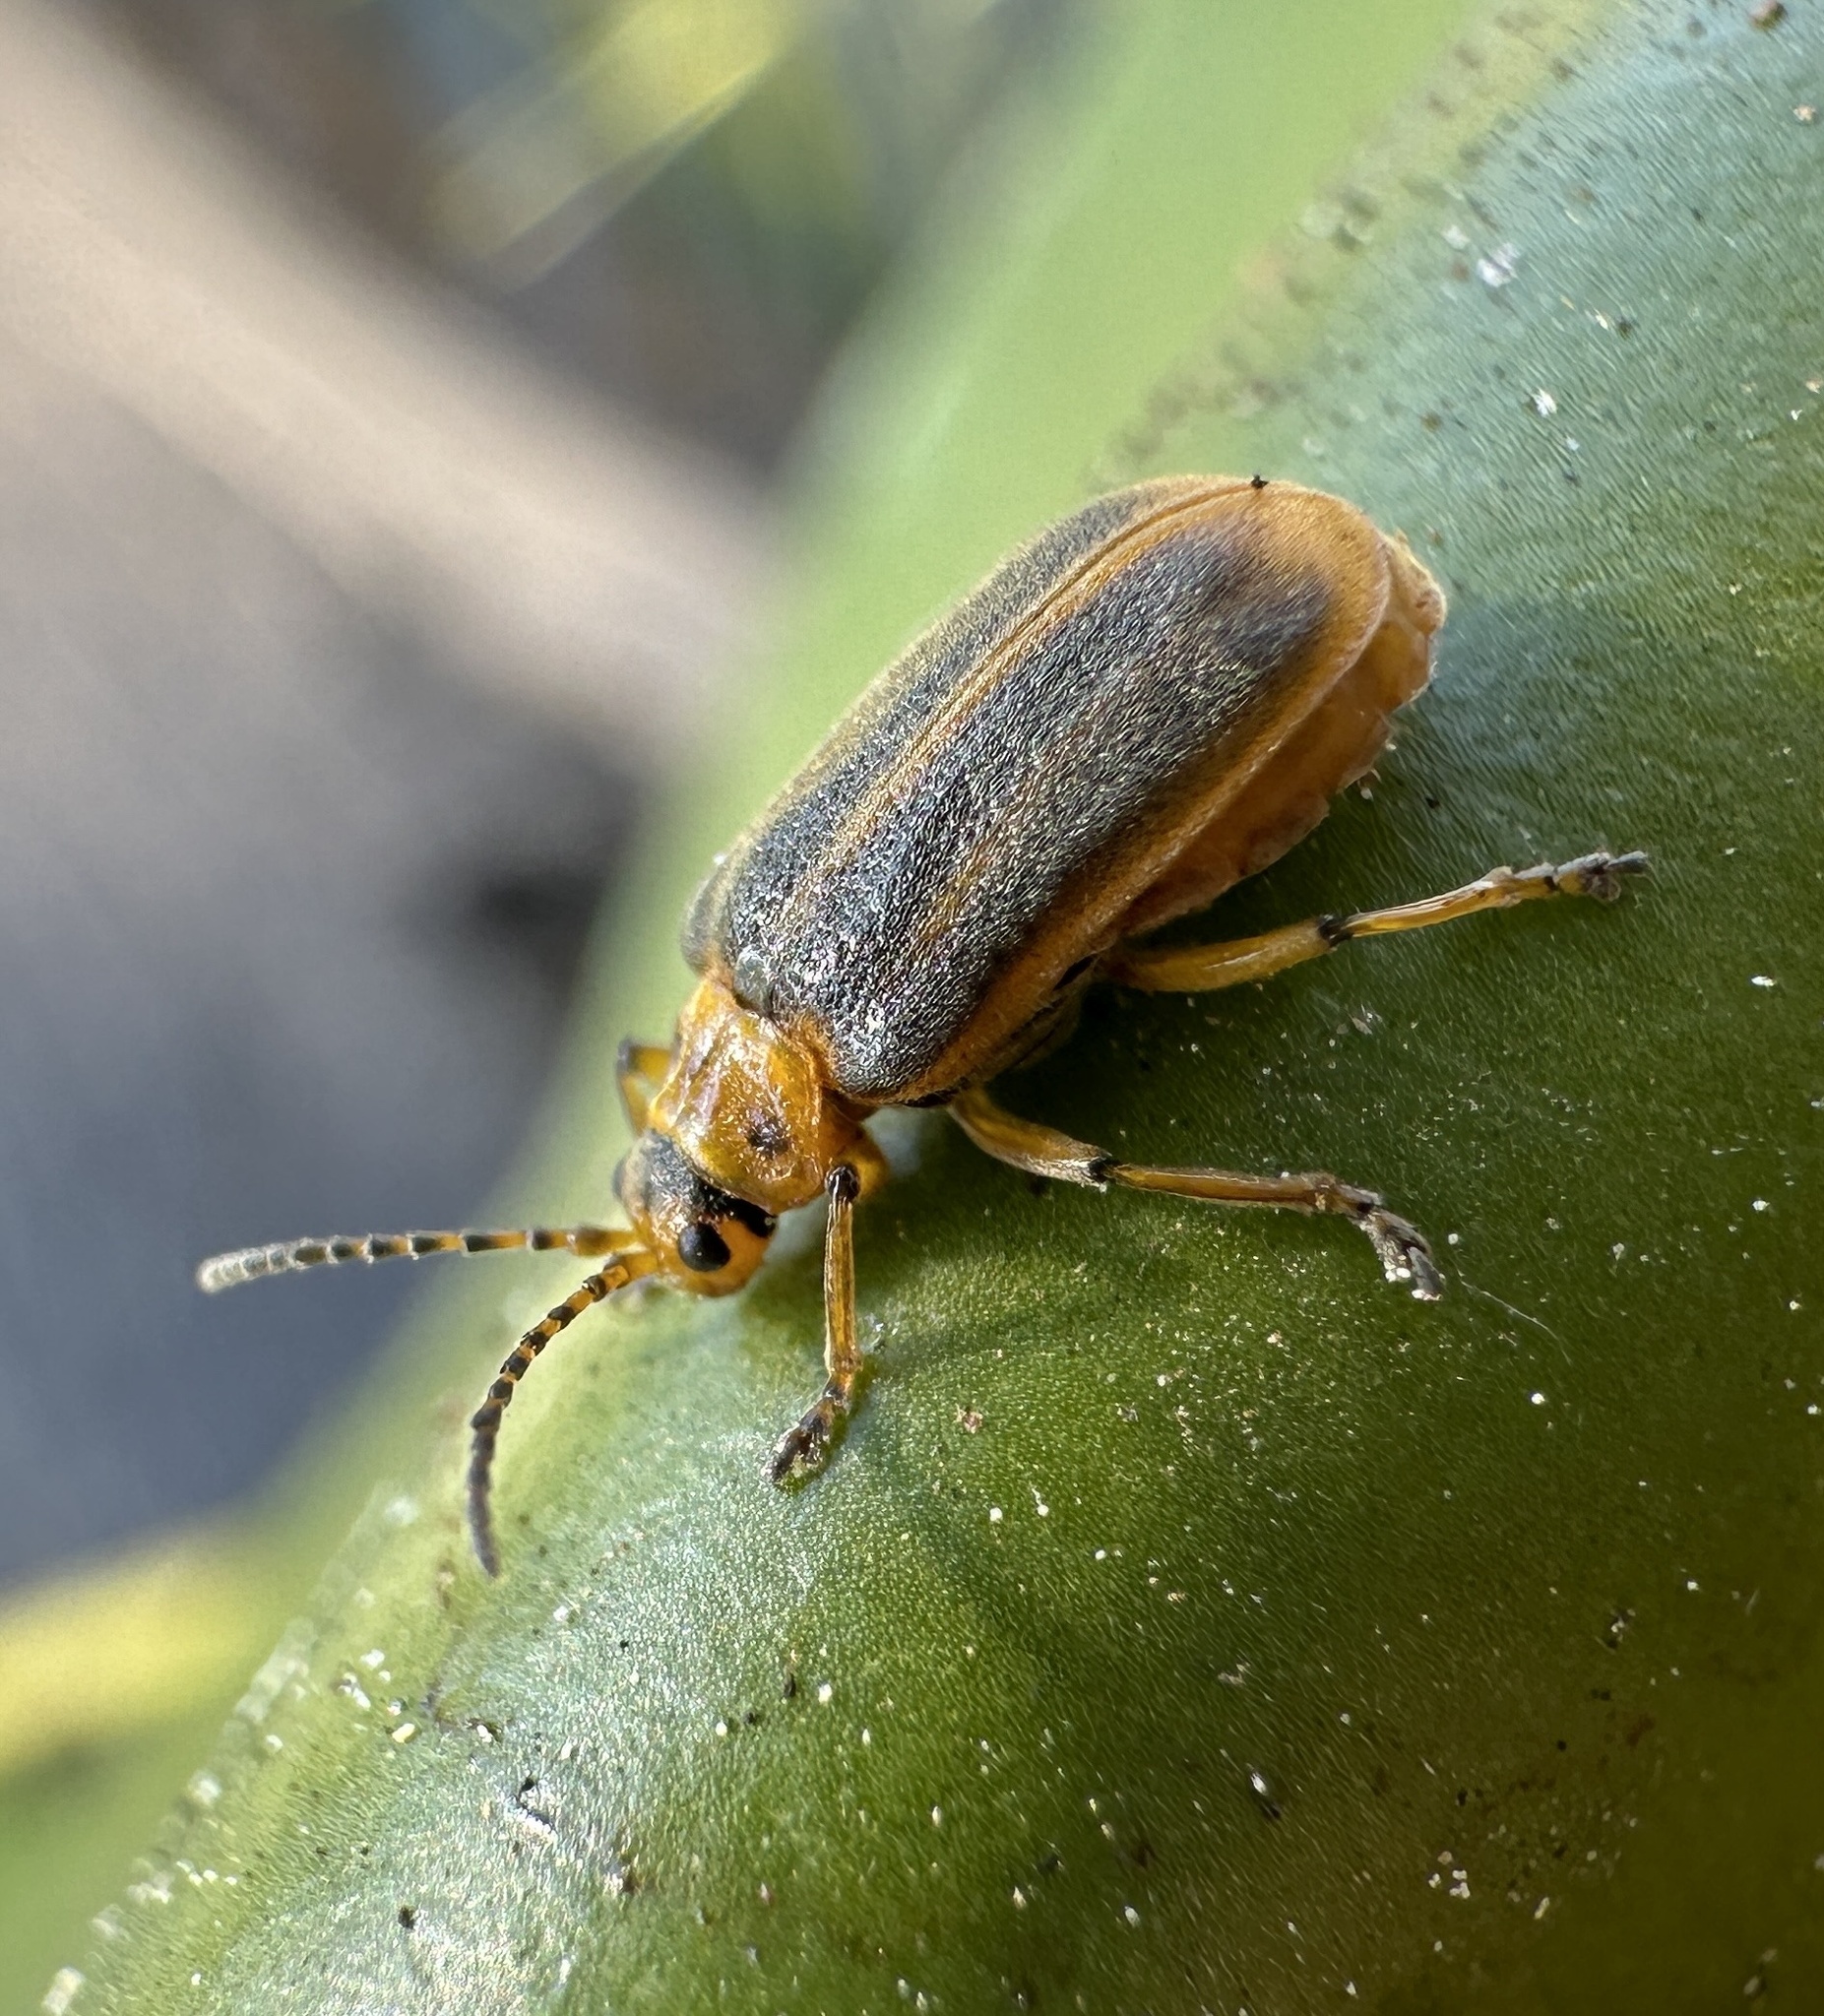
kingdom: Animalia
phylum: Arthropoda
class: Insecta
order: Coleoptera
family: Chrysomelidae
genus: Galerucella
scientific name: Galerucella nymphaeae
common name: Leaf beetle
